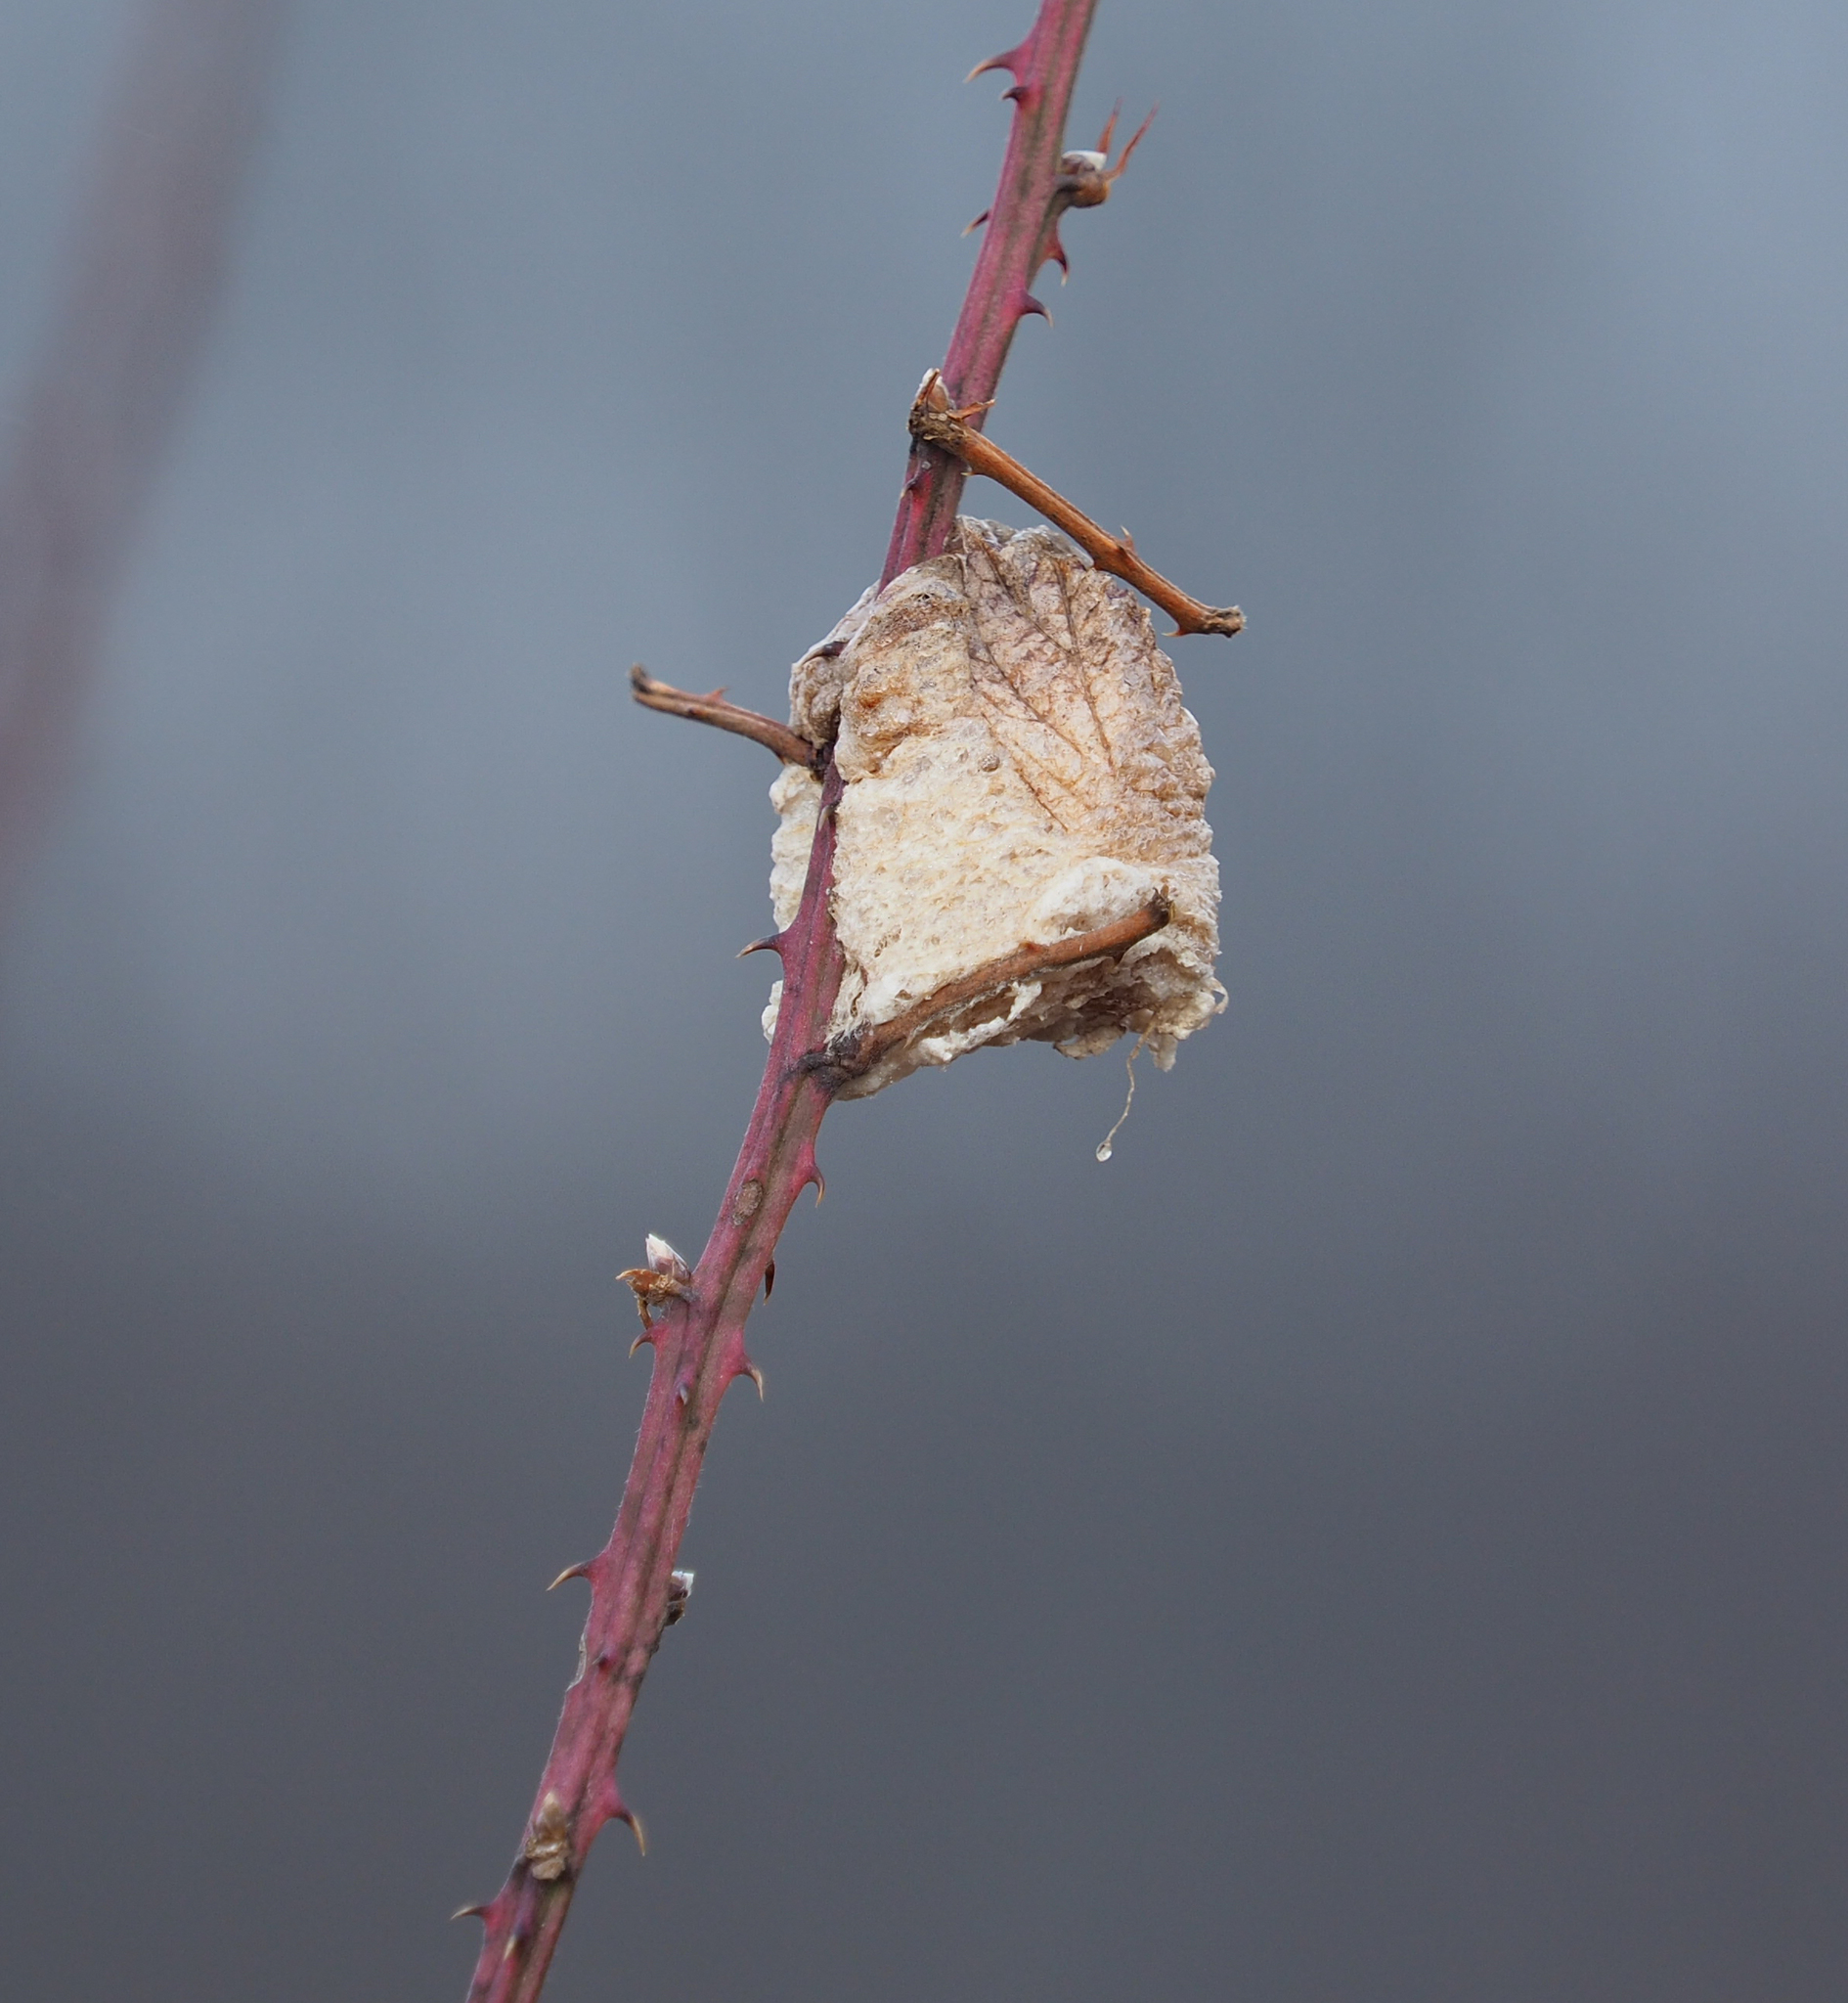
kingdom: Animalia
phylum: Arthropoda
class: Insecta
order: Mantodea
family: Mantidae
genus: Tenodera
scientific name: Tenodera sinensis
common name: Chinese mantis
